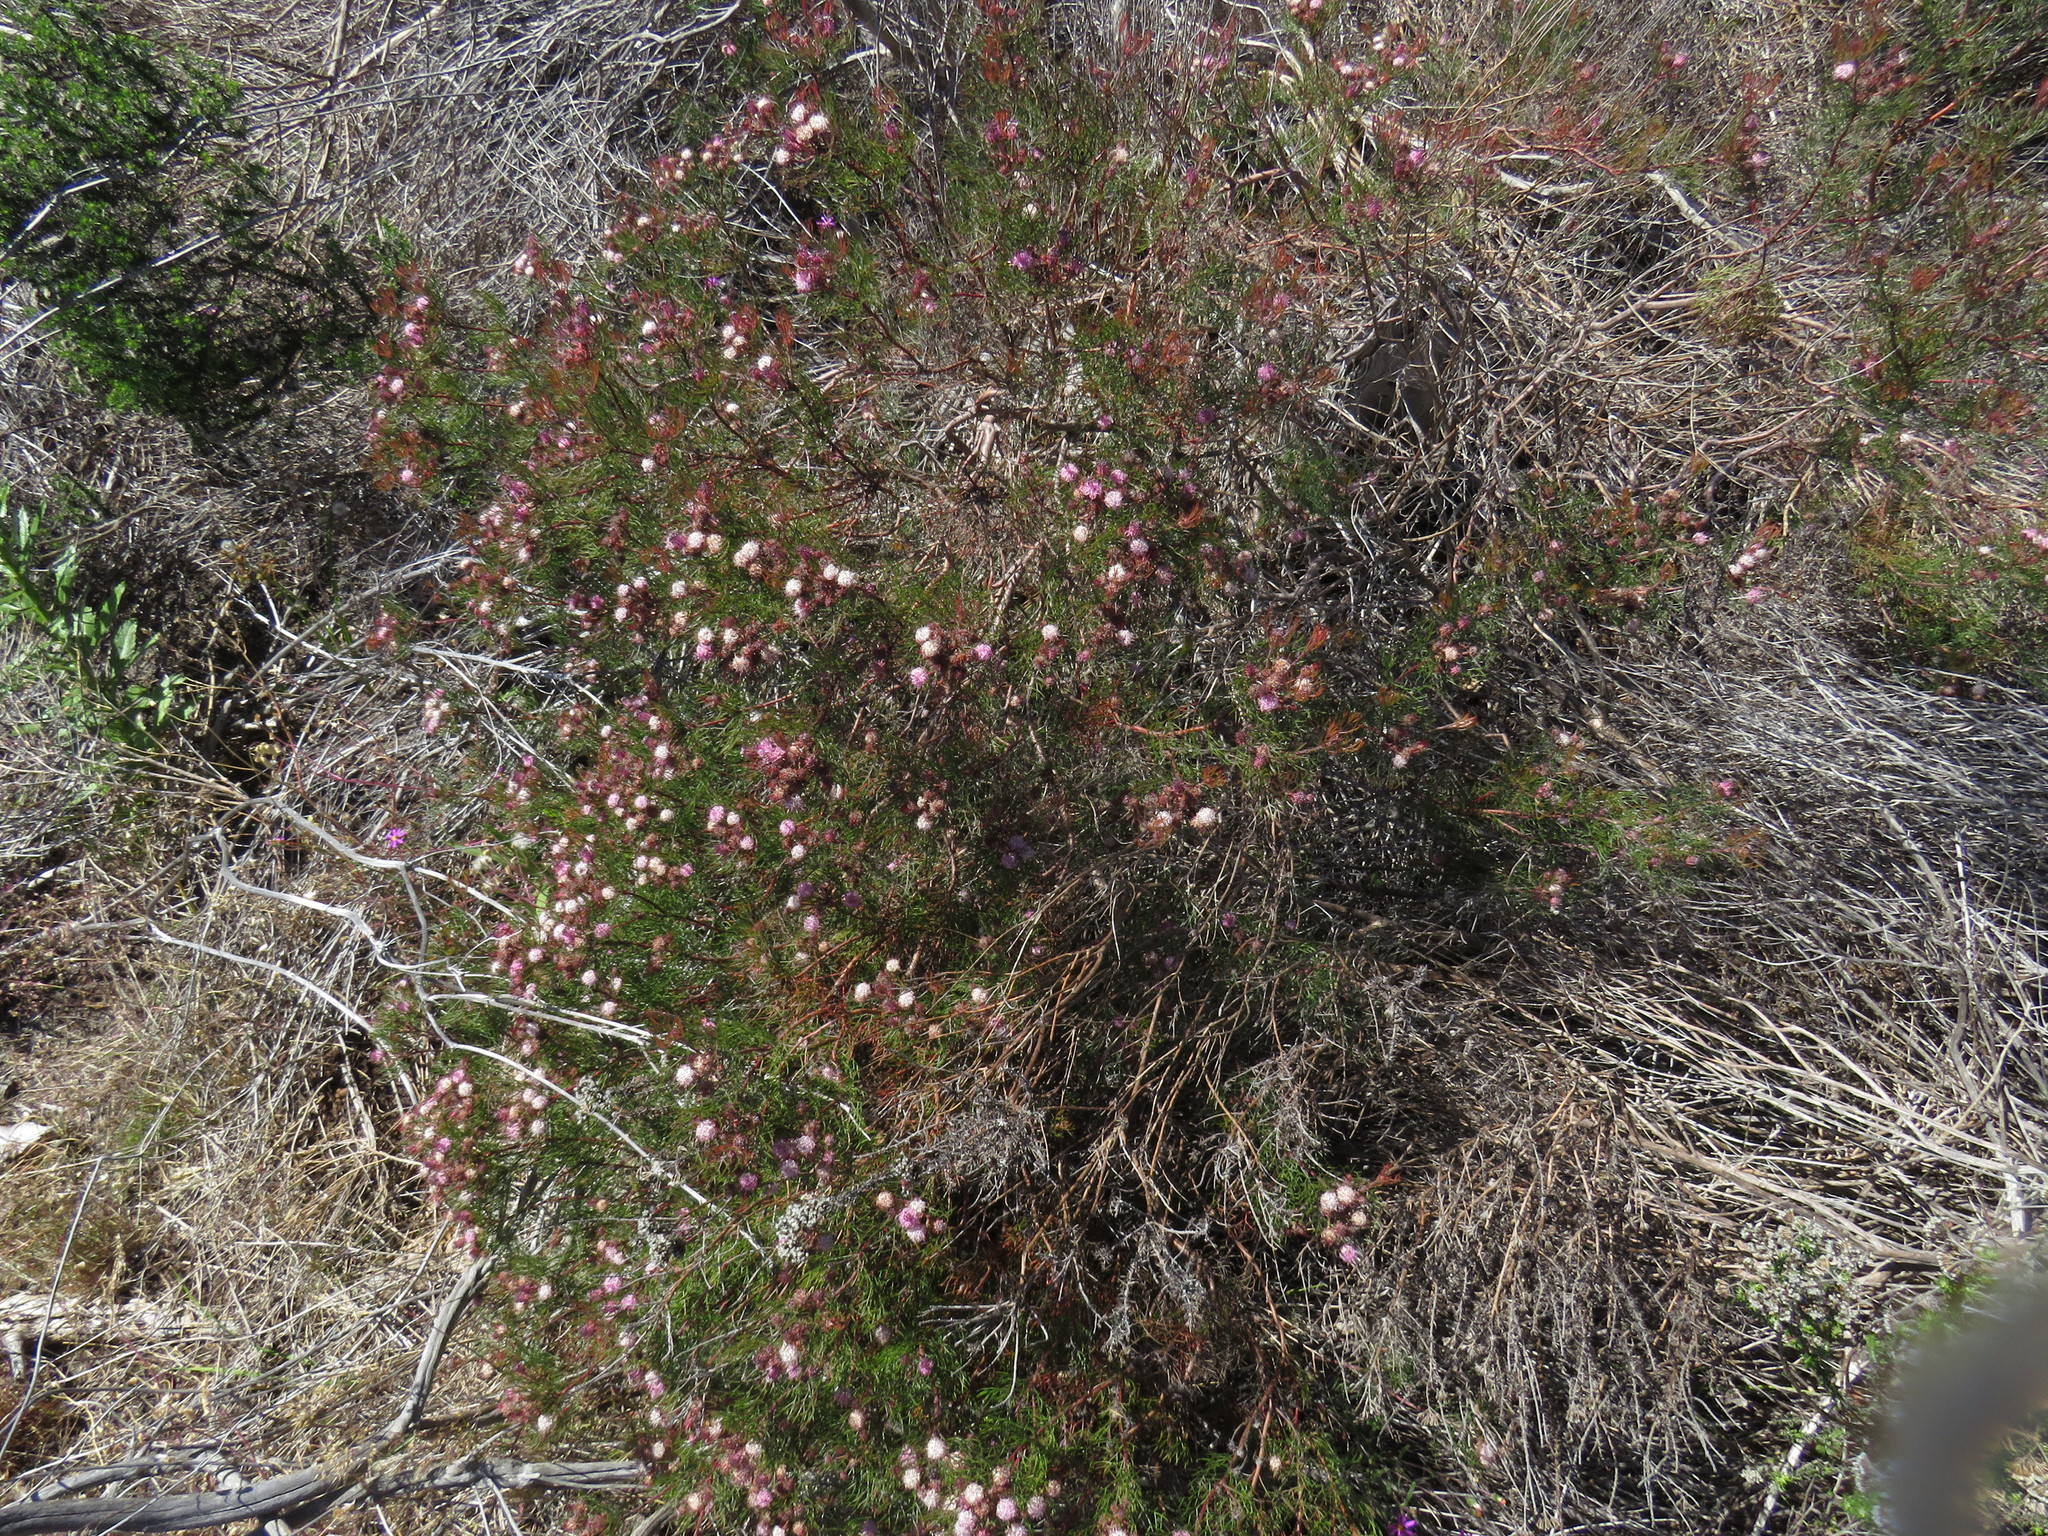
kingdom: Plantae
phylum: Tracheophyta
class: Magnoliopsida
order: Proteales
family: Proteaceae
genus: Serruria
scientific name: Serruria fasciflora
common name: Common pin spiderhead
